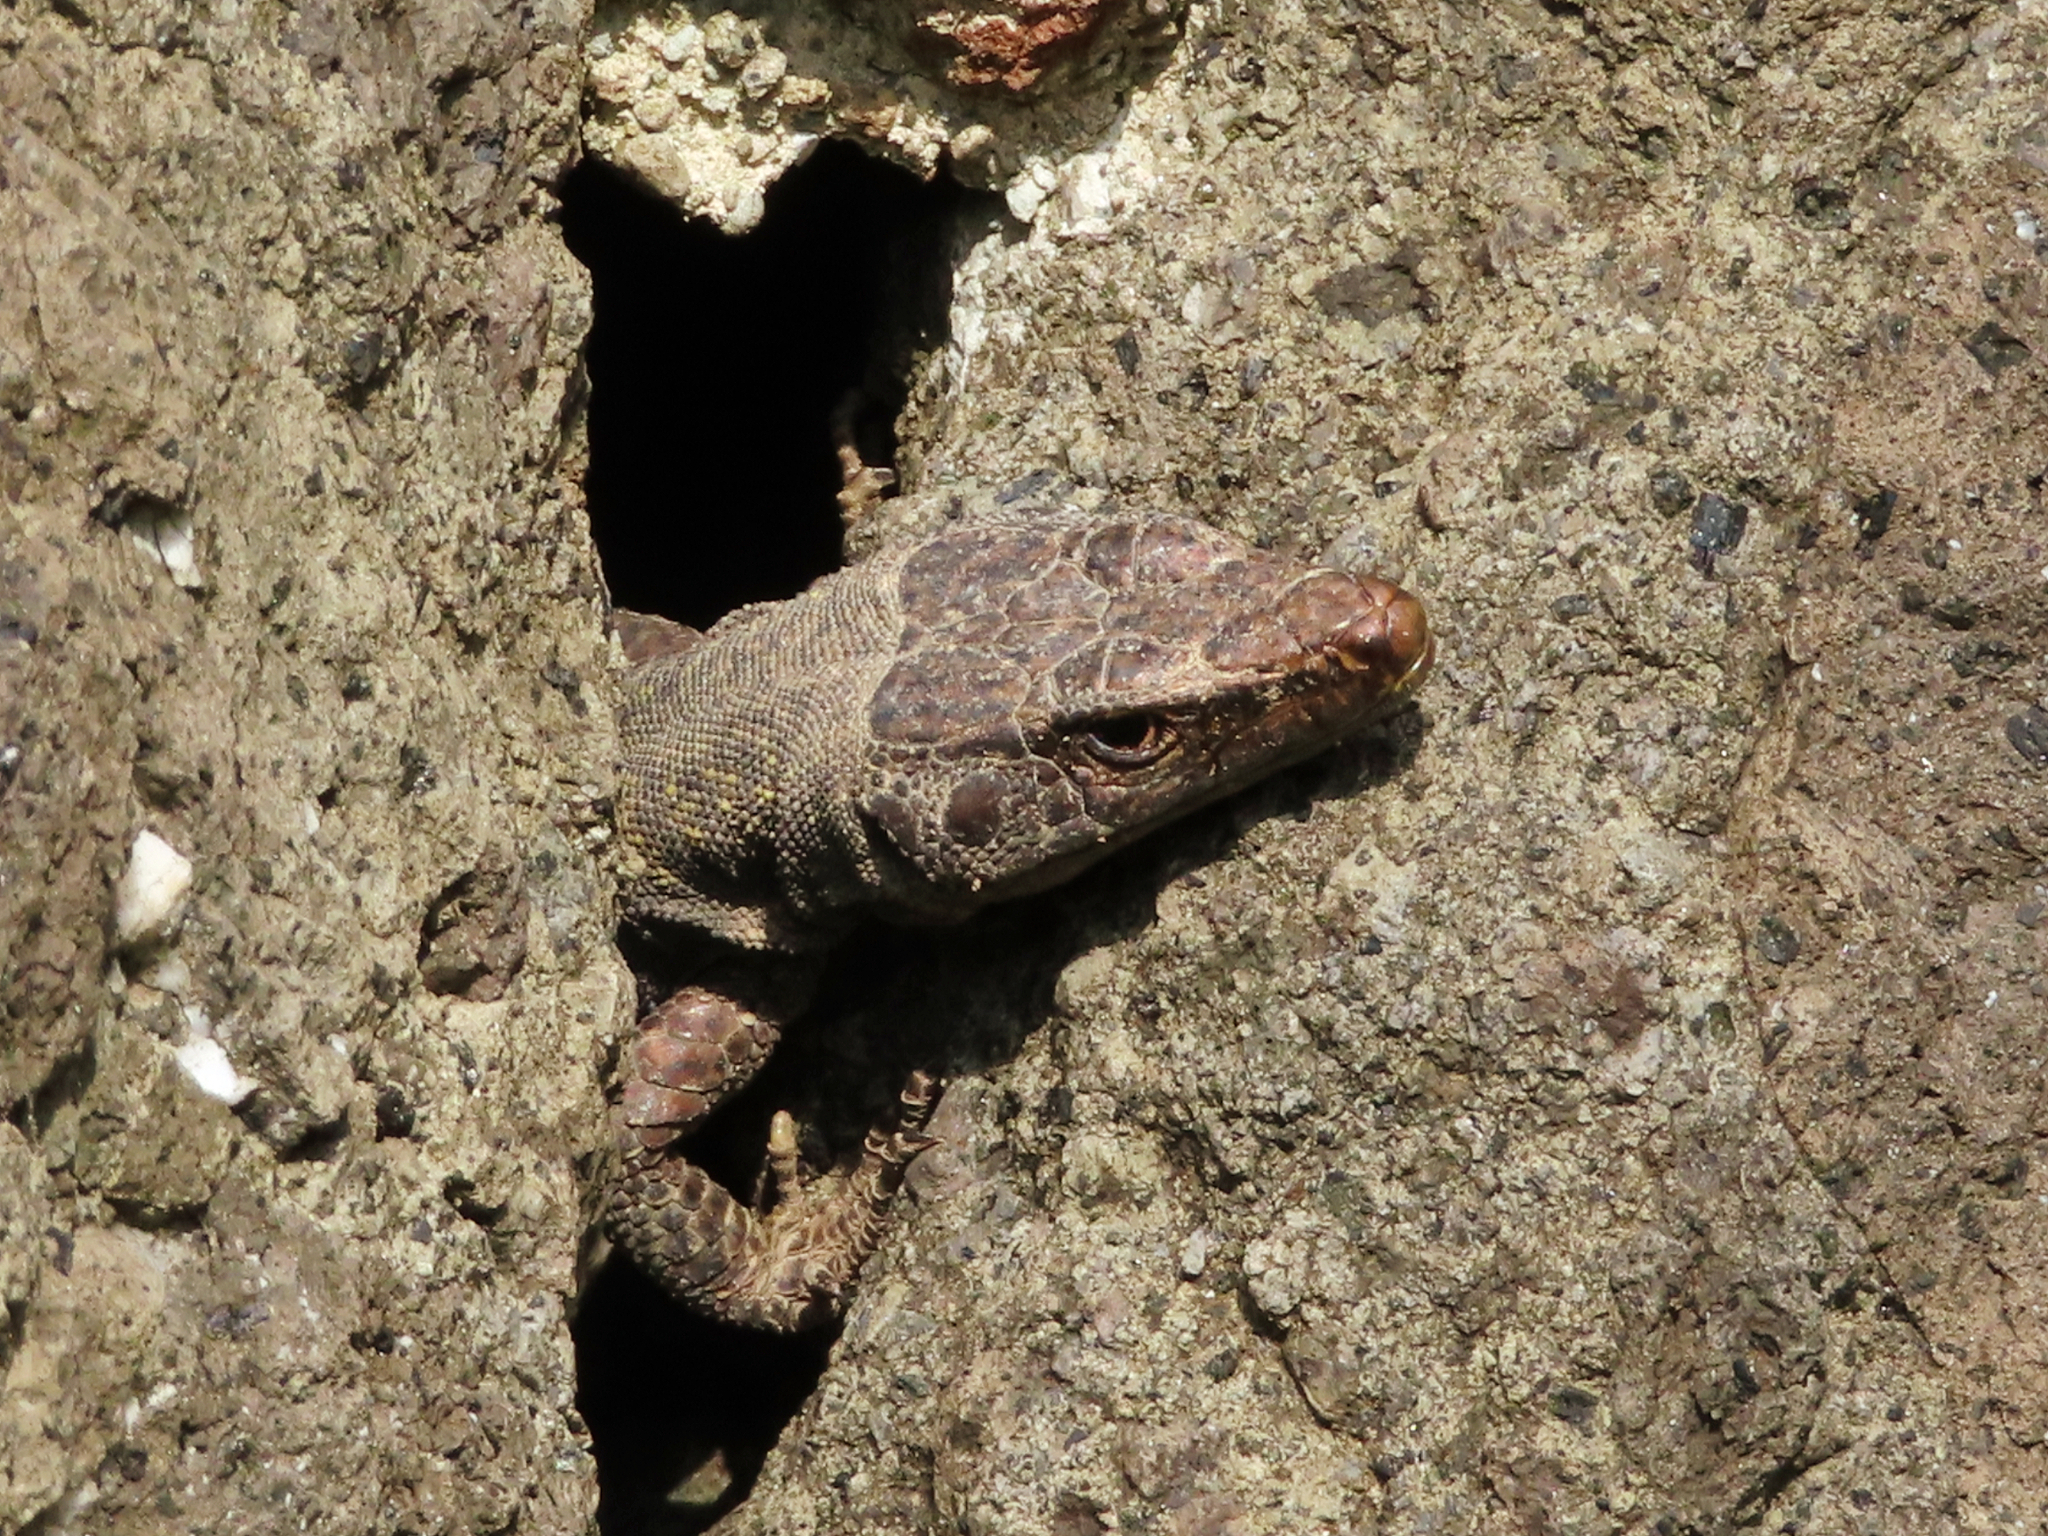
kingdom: Animalia
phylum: Chordata
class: Squamata
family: Lacertidae
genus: Darevskia
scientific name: Darevskia rudis
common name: Spiny-tailed lizard
